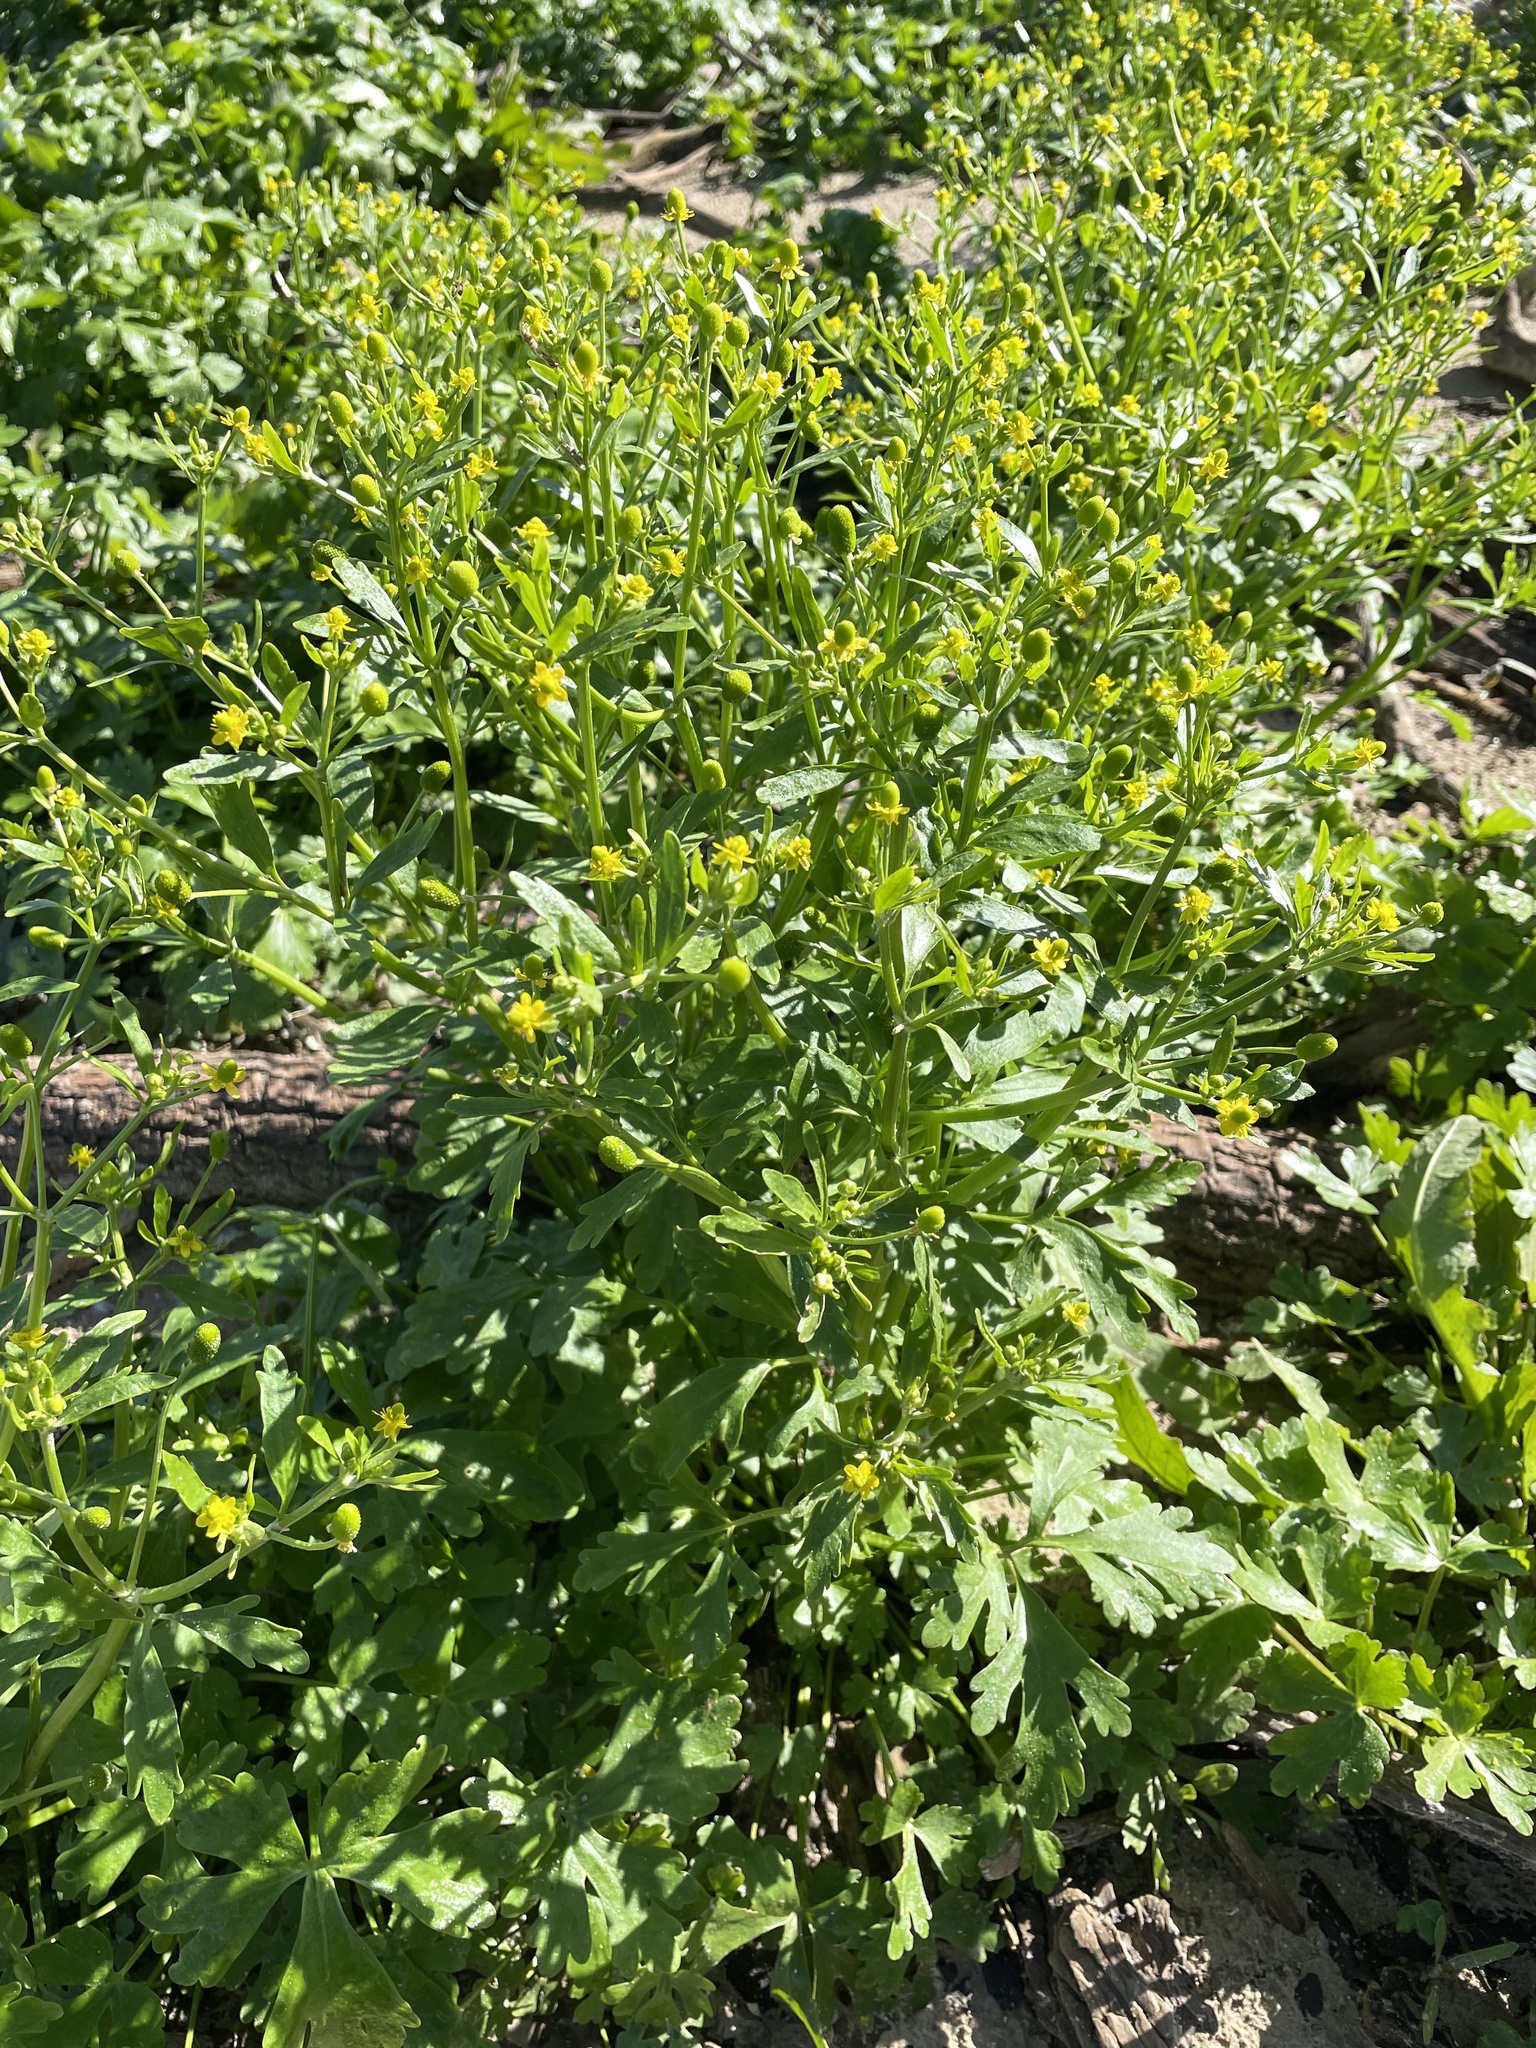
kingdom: Plantae
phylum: Tracheophyta
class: Magnoliopsida
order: Ranunculales
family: Ranunculaceae
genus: Ranunculus
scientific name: Ranunculus sceleratus
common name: Celery-leaved buttercup
